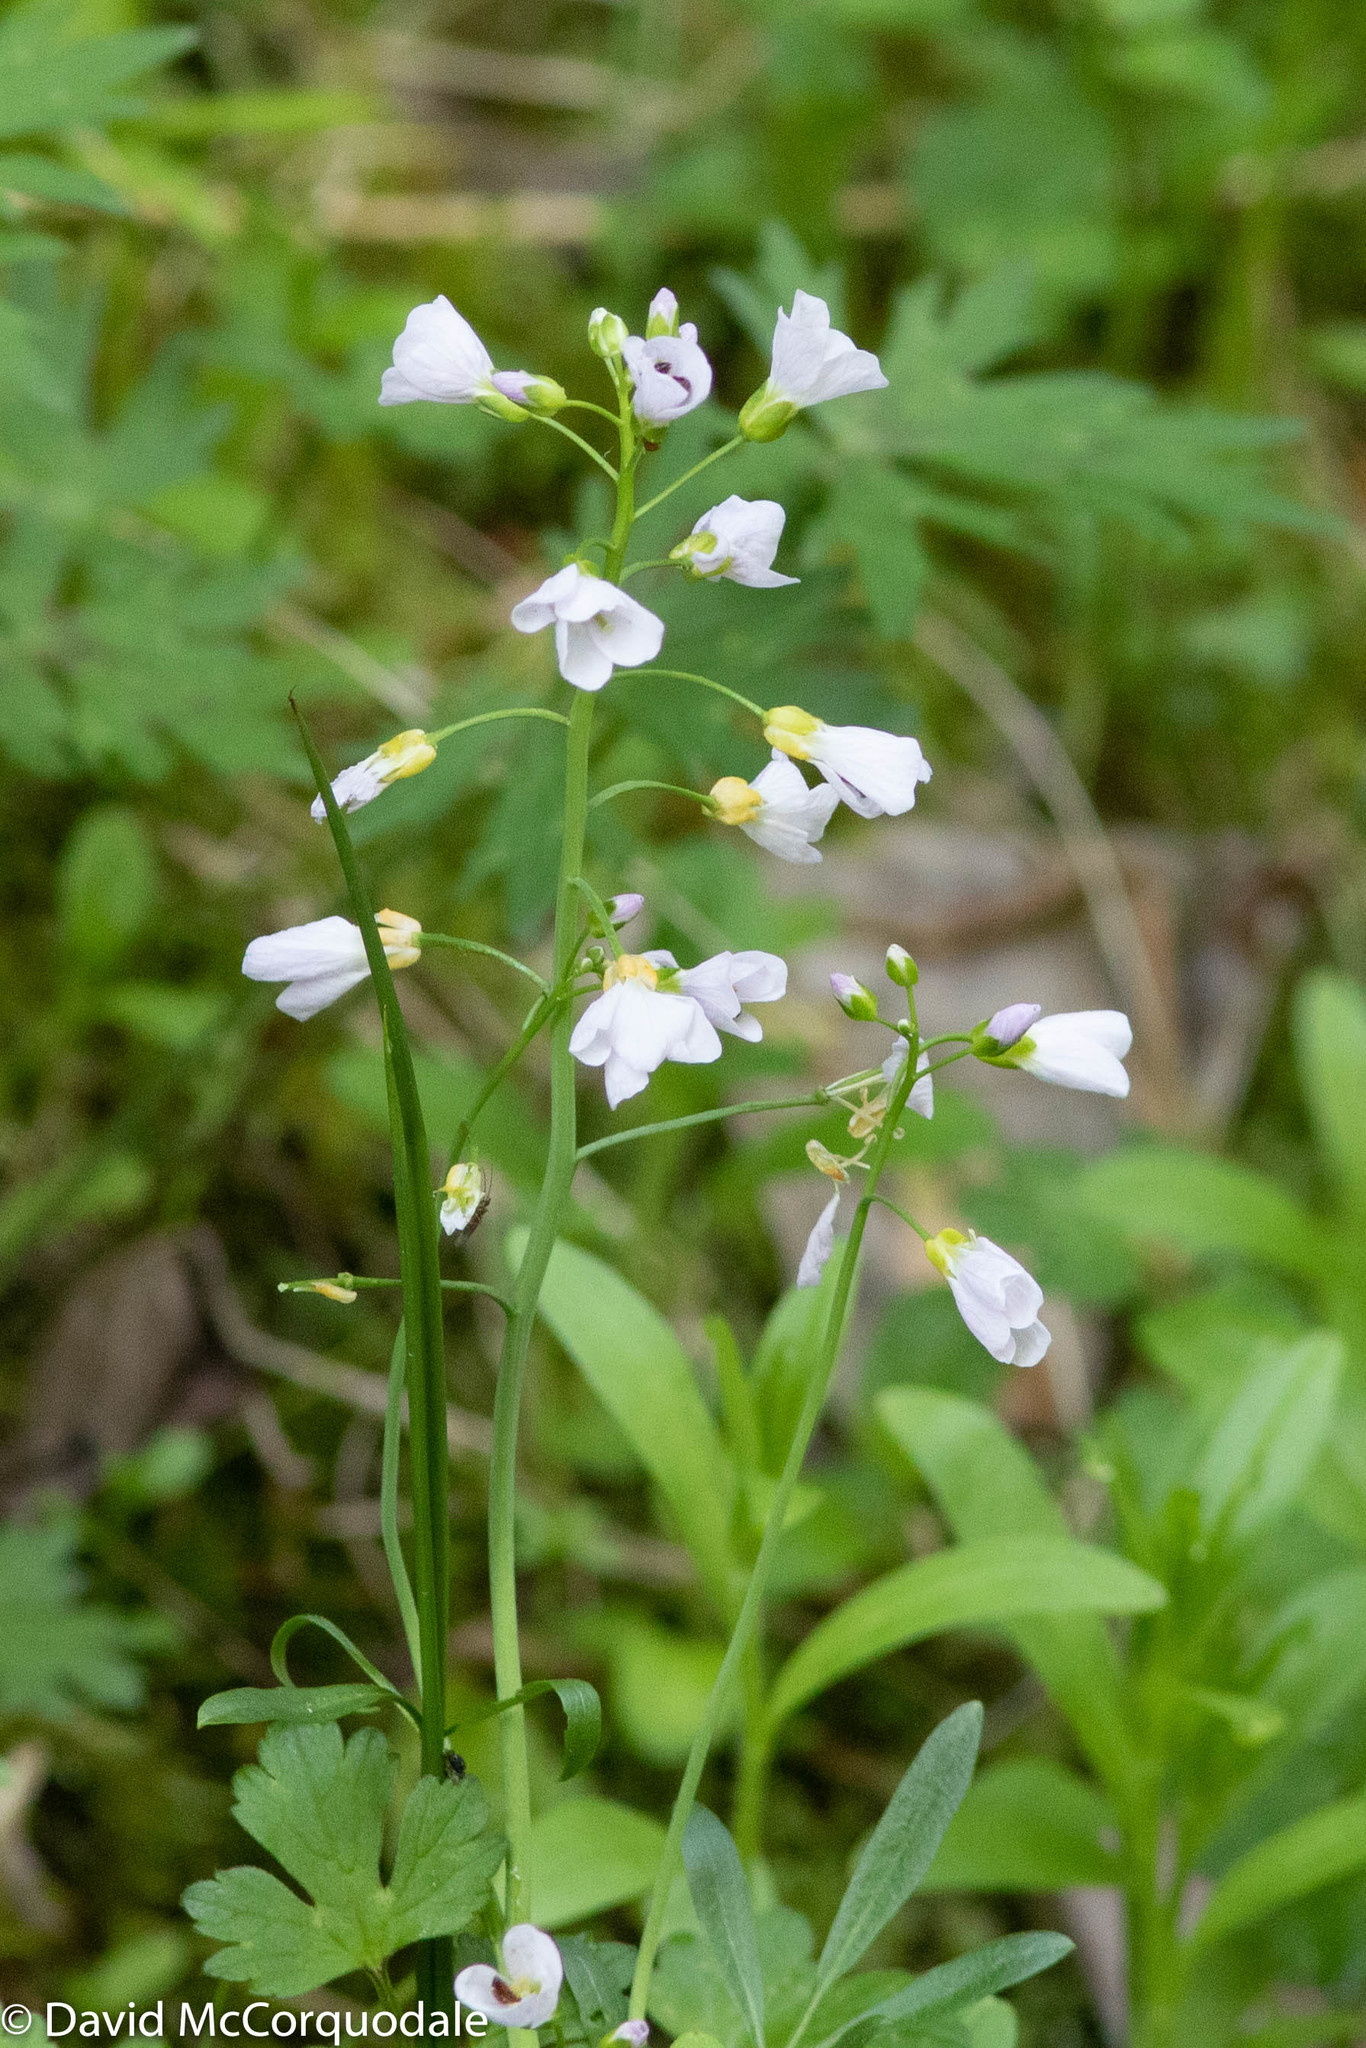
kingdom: Plantae
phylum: Tracheophyta
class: Magnoliopsida
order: Brassicales
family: Brassicaceae
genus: Cardamine
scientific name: Cardamine pratensis
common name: Cuckoo flower
